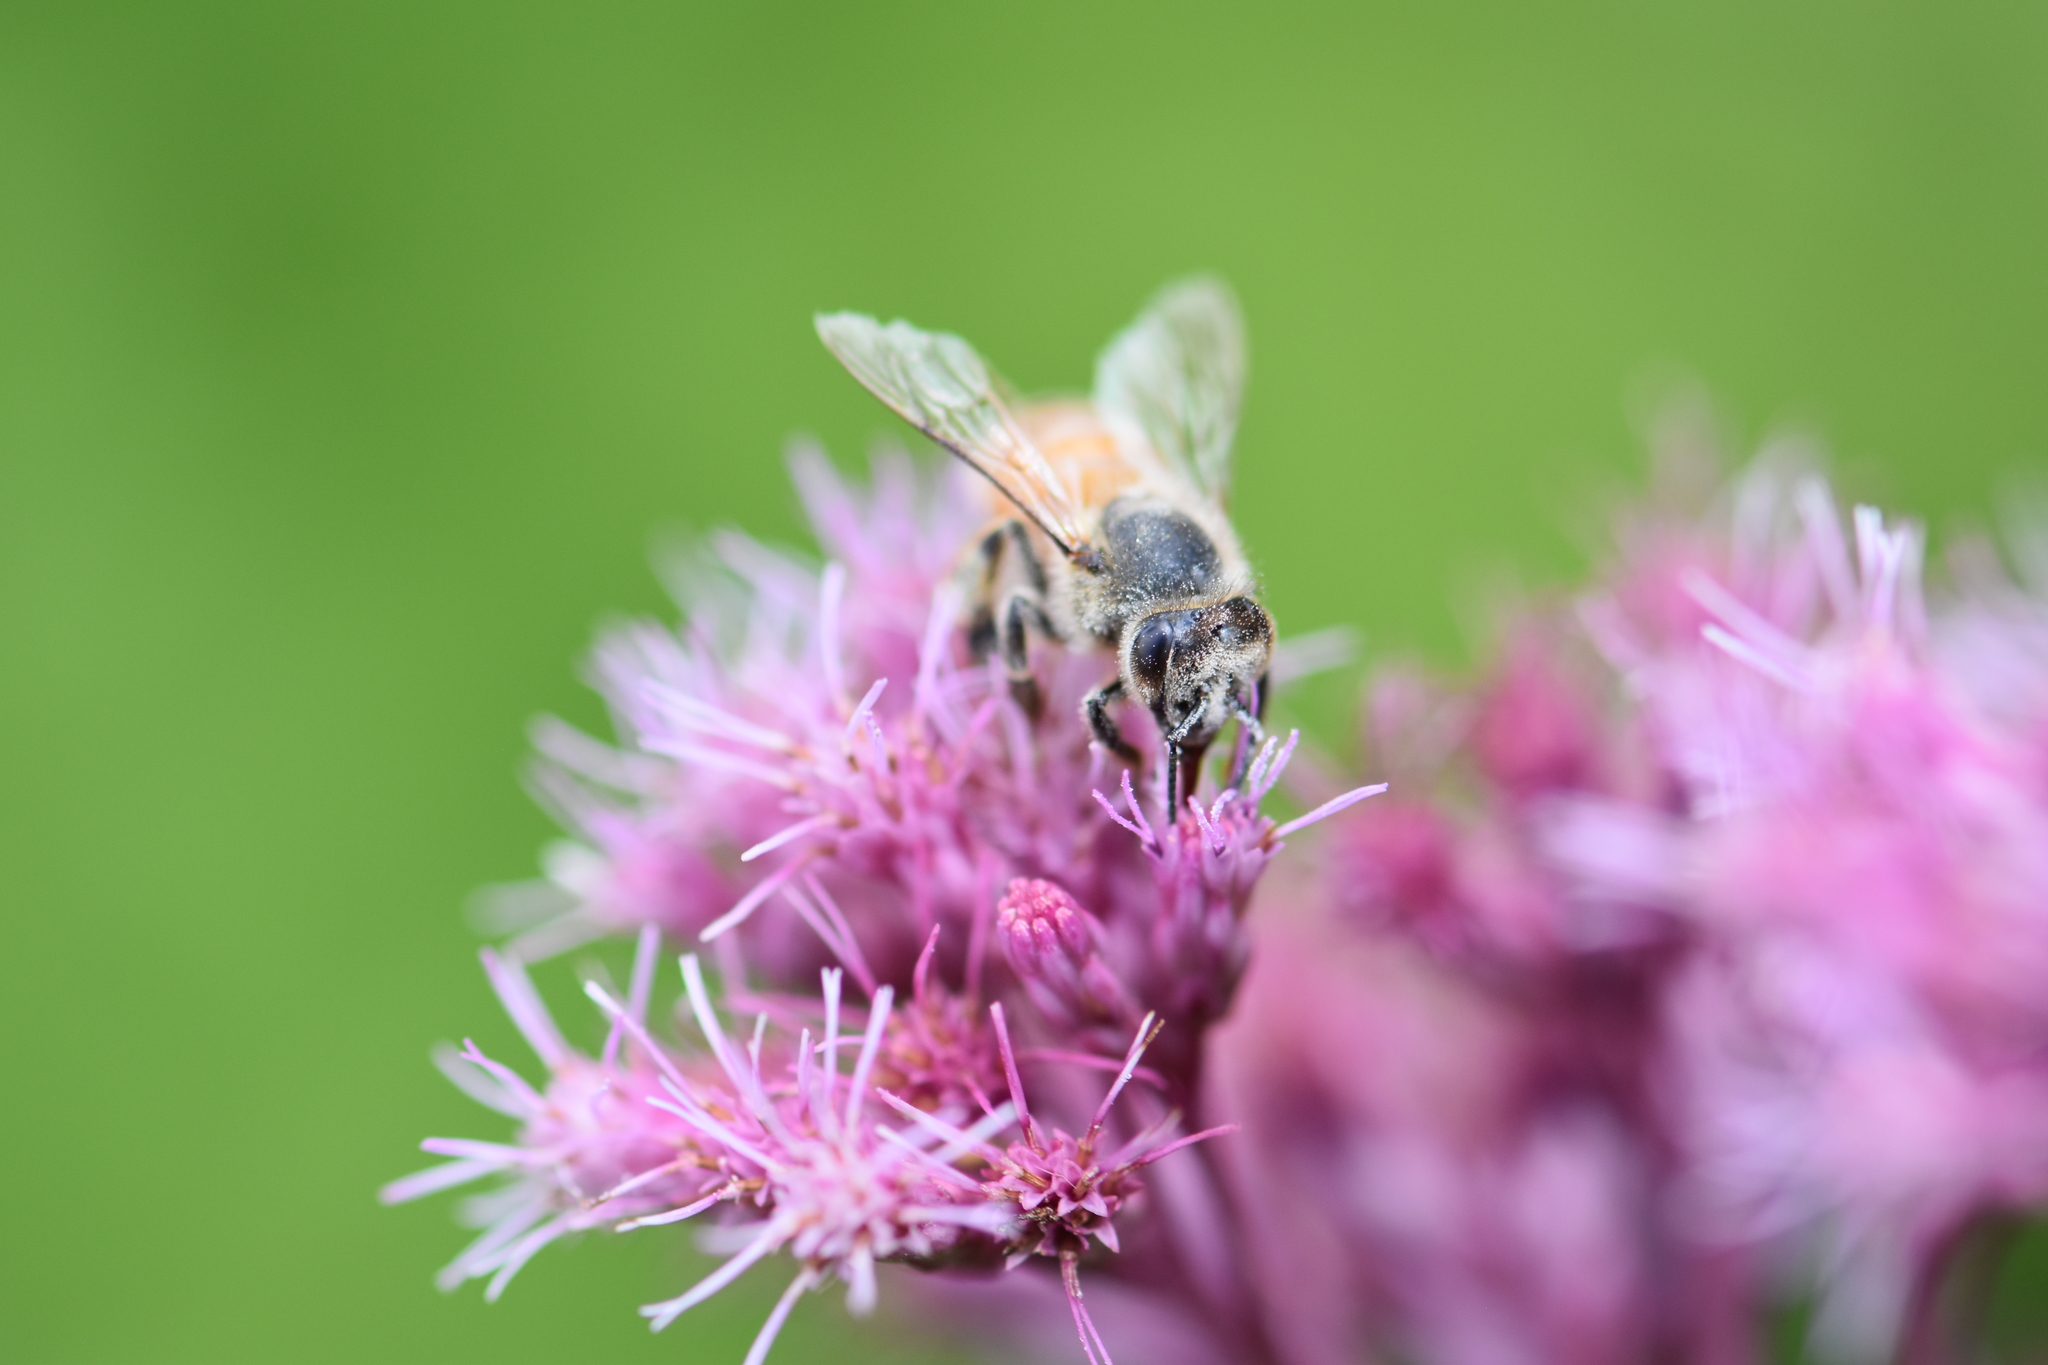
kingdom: Animalia
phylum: Arthropoda
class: Insecta
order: Hymenoptera
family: Apidae
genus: Apis
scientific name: Apis mellifera
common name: Honey bee
